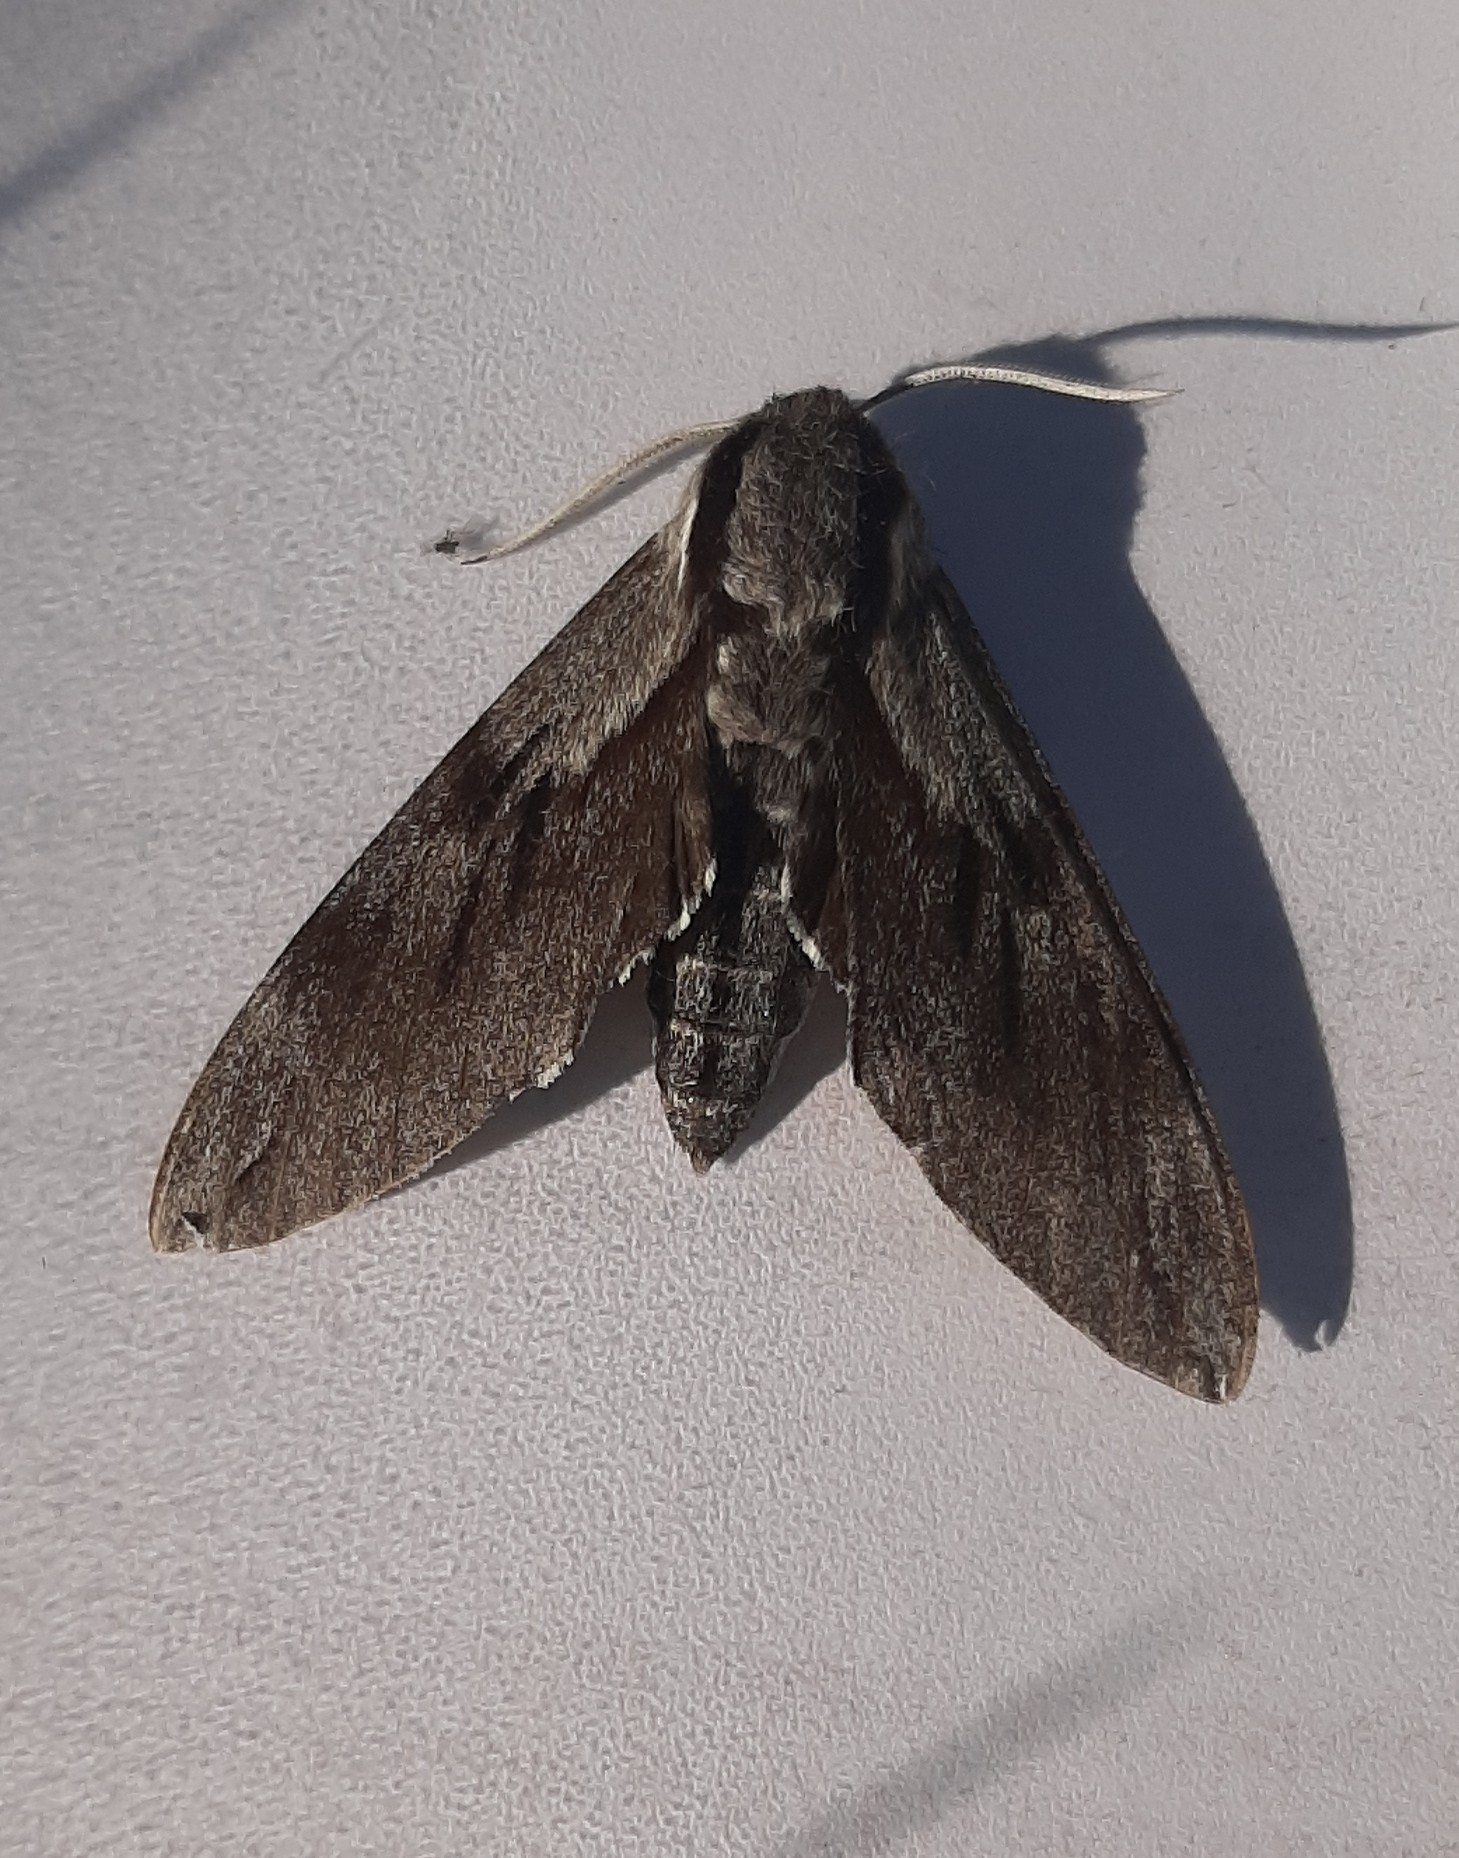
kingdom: Animalia
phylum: Arthropoda
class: Insecta
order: Lepidoptera
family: Sphingidae
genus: Sphinx
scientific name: Sphinx pinastri
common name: Pine hawk-moth
